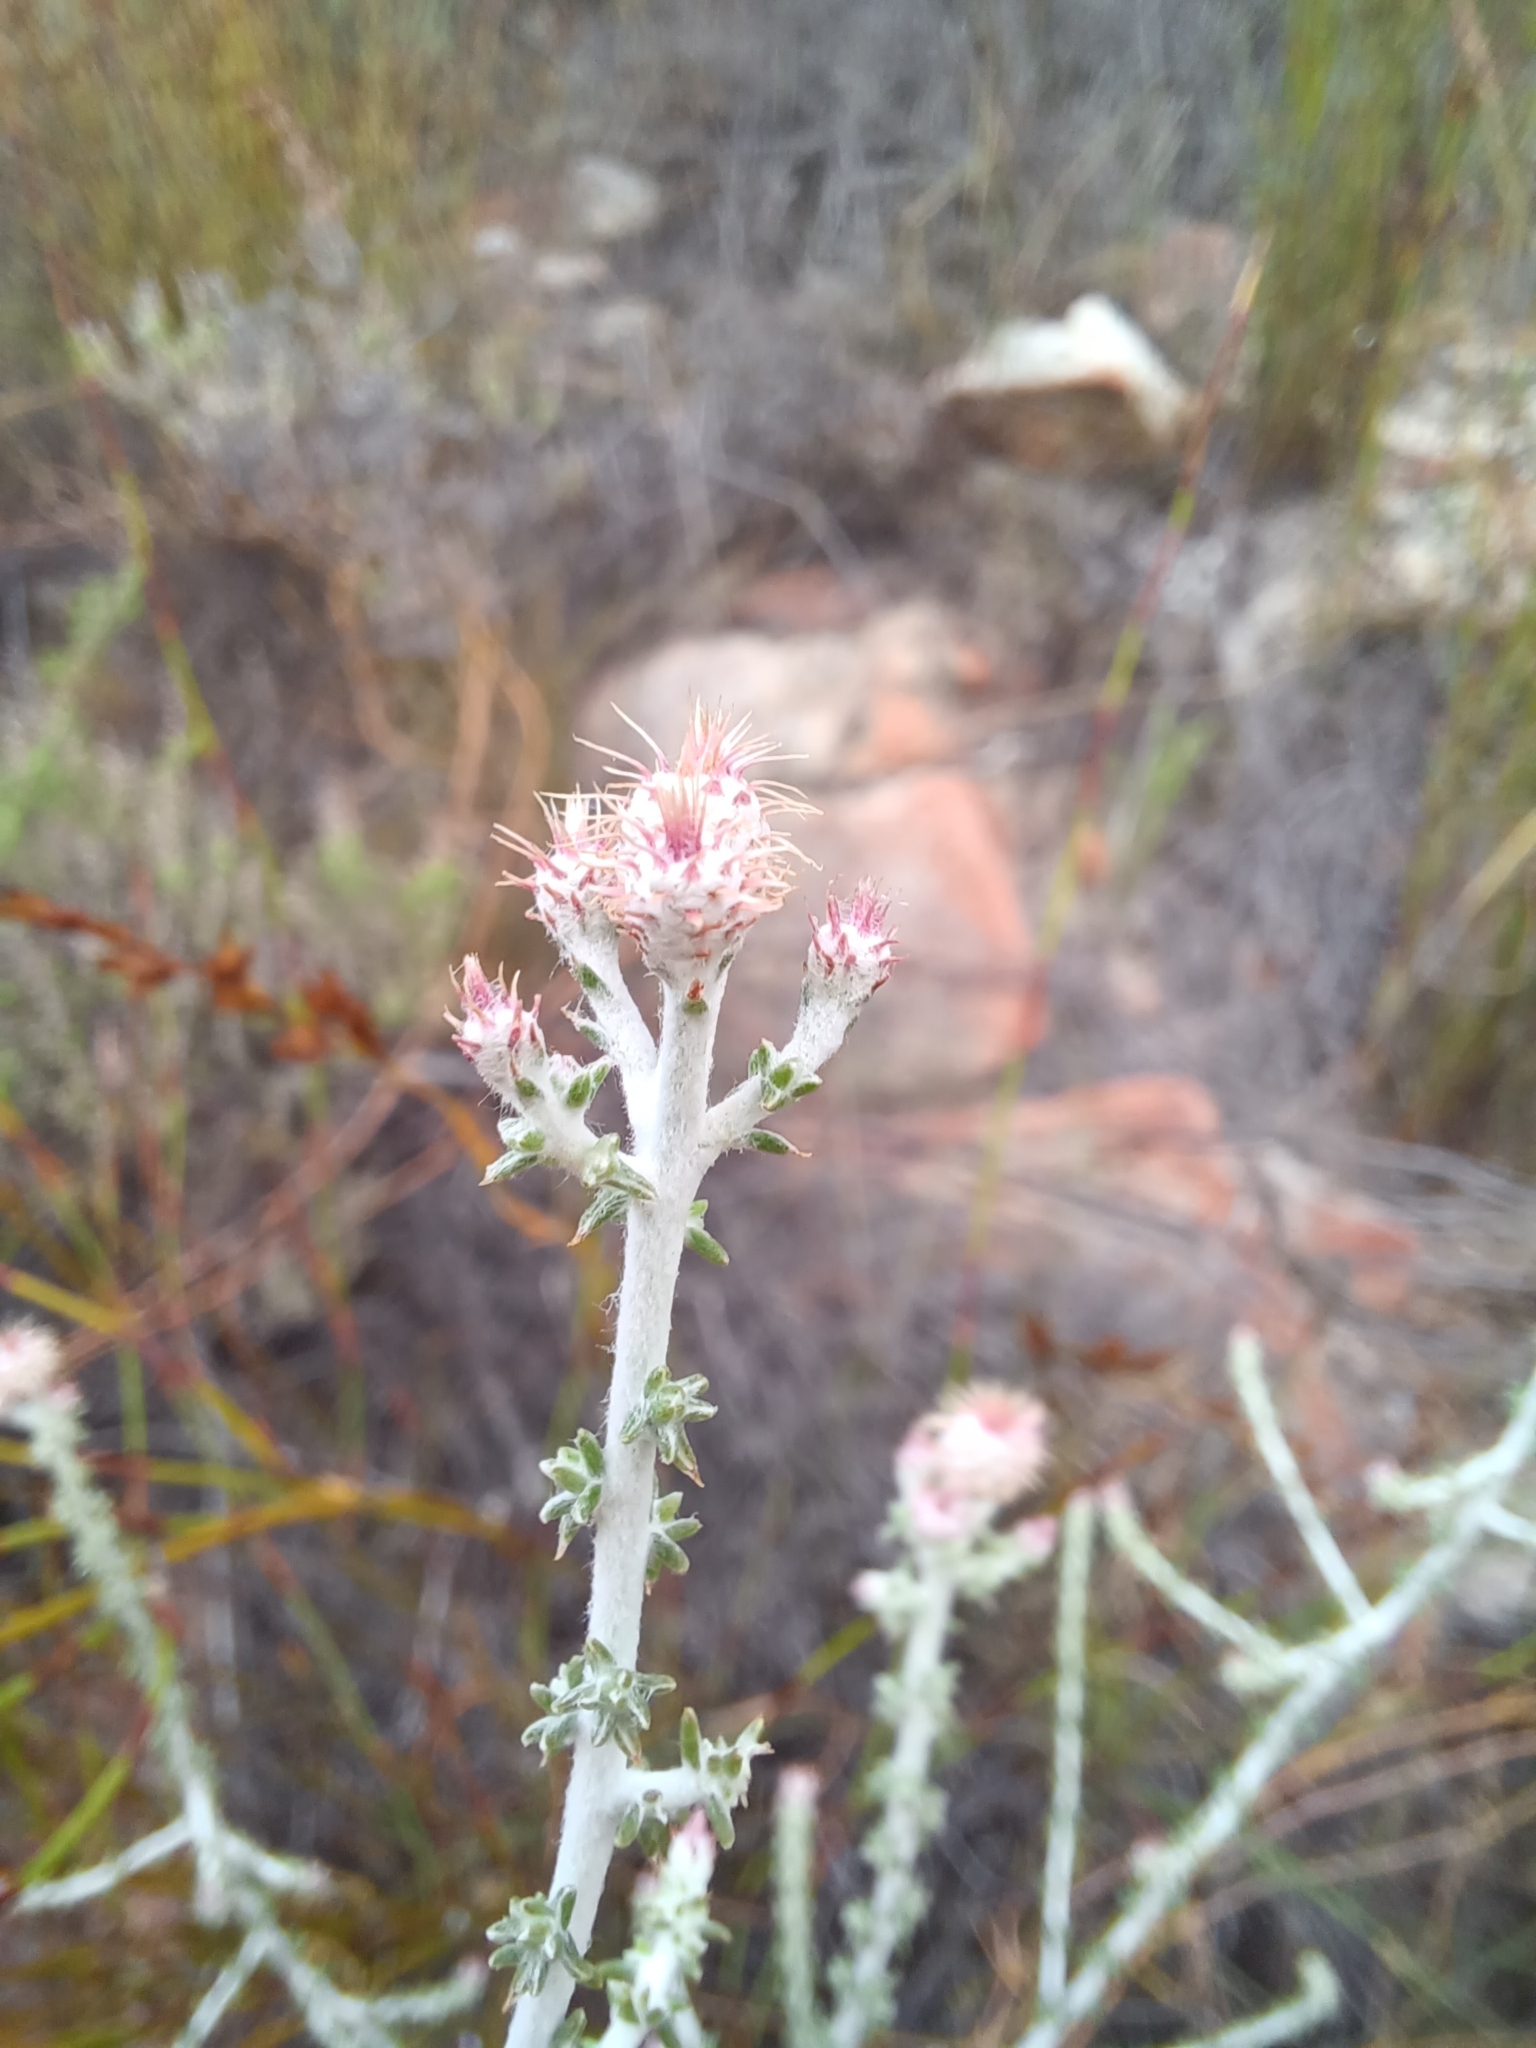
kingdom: Plantae
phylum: Tracheophyta
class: Magnoliopsida
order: Asterales
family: Asteraceae
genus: Lachnospermum
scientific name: Lachnospermum neglectum
